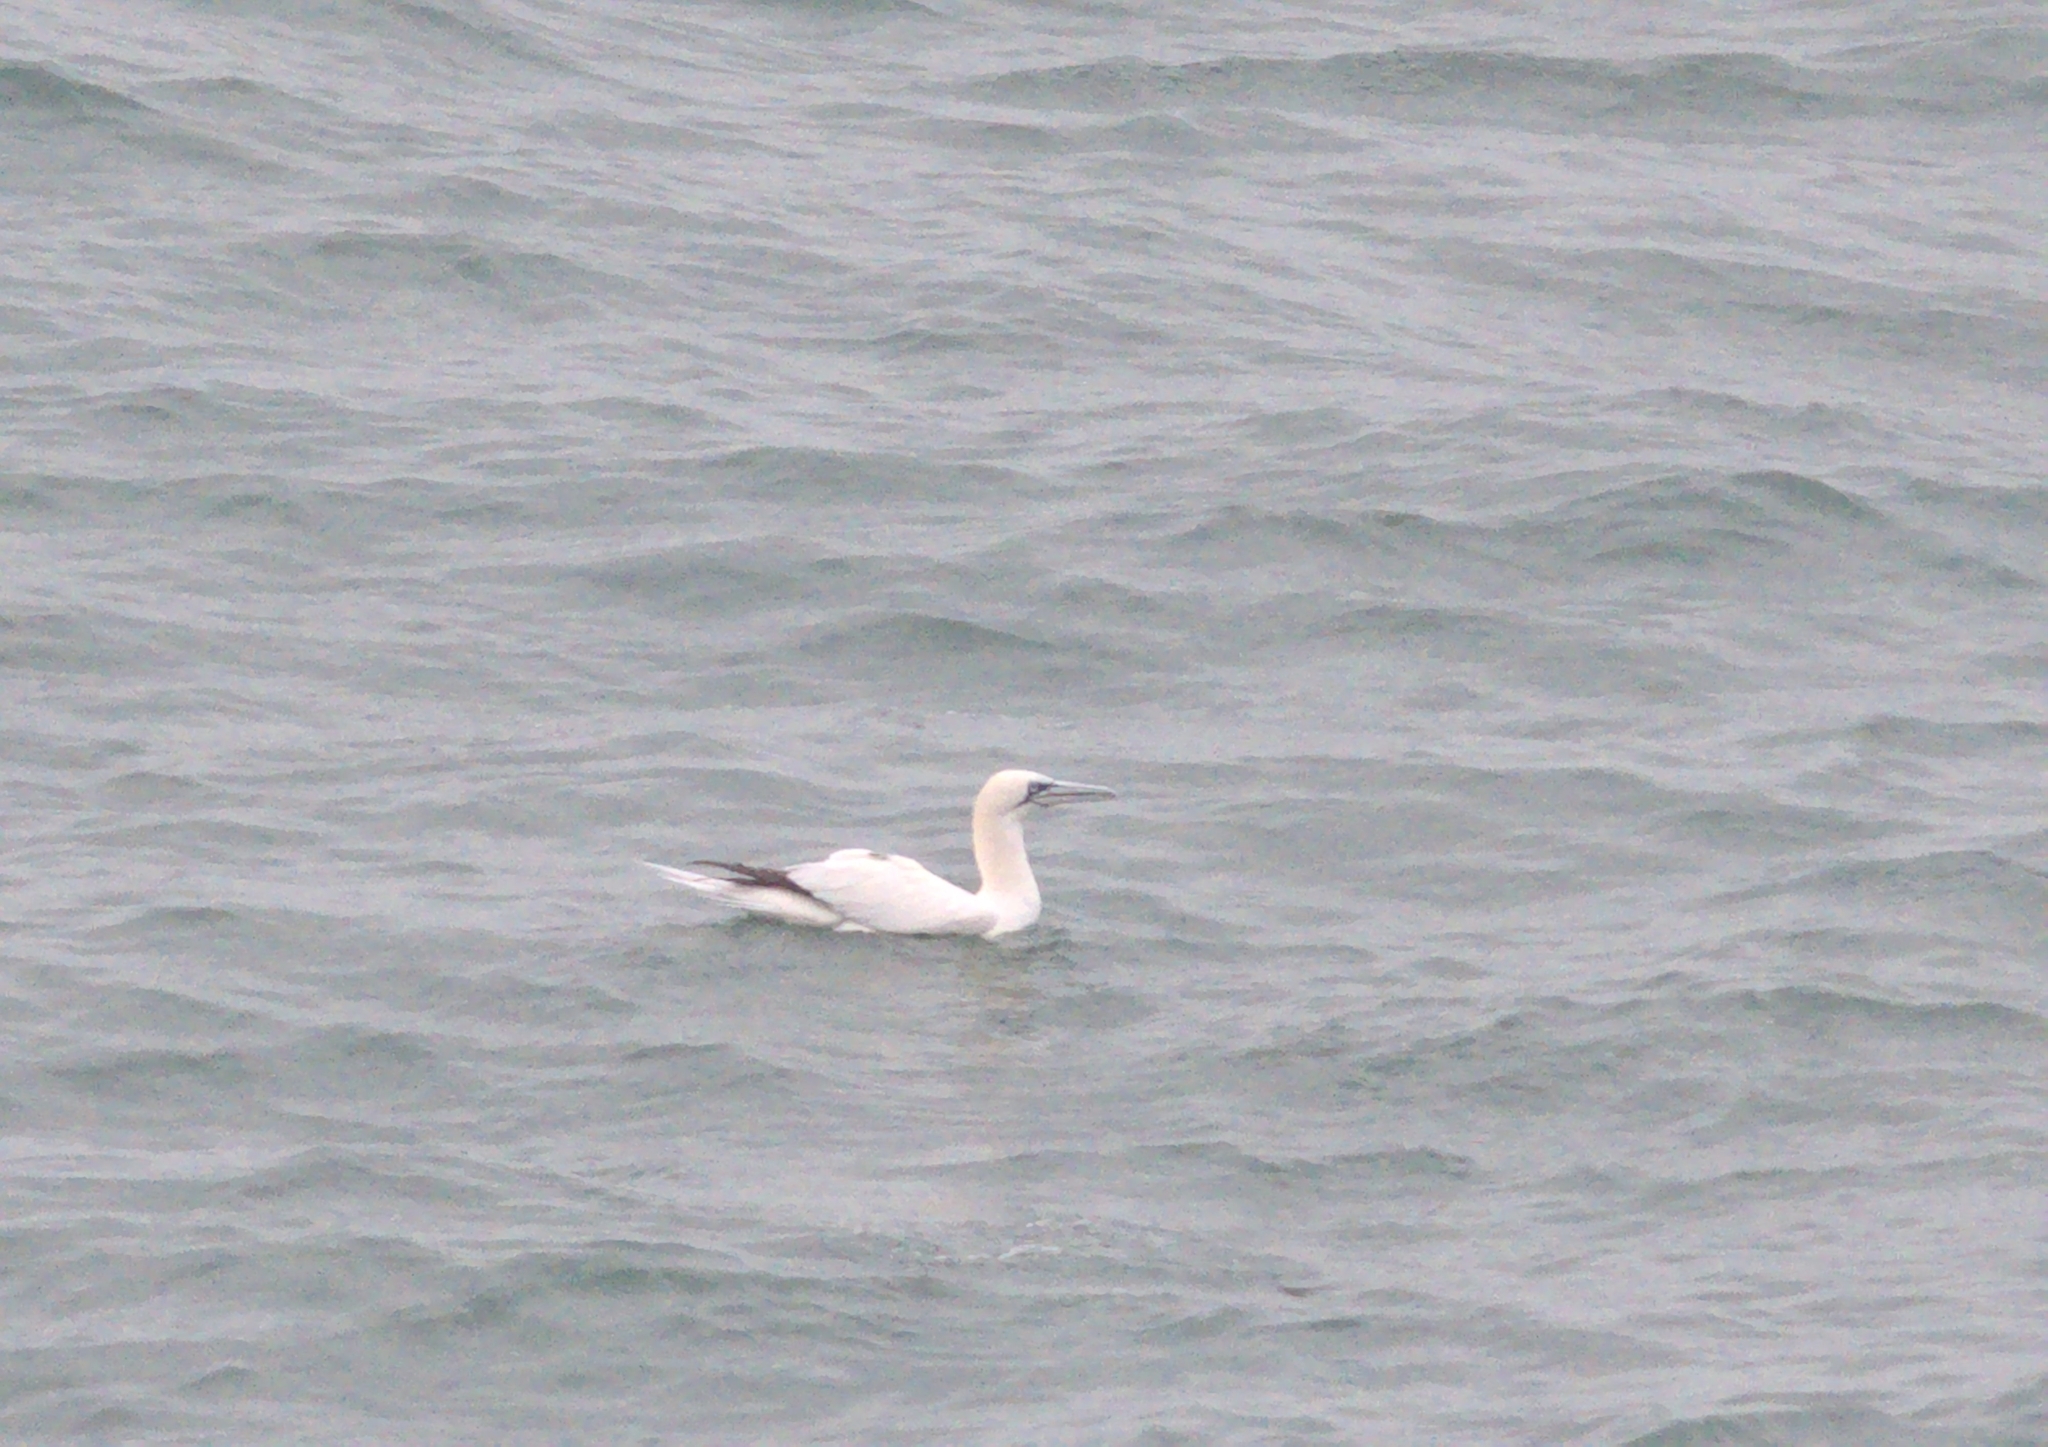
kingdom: Animalia
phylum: Chordata
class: Aves
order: Suliformes
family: Sulidae
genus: Morus
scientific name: Morus bassanus
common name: Northern gannet
